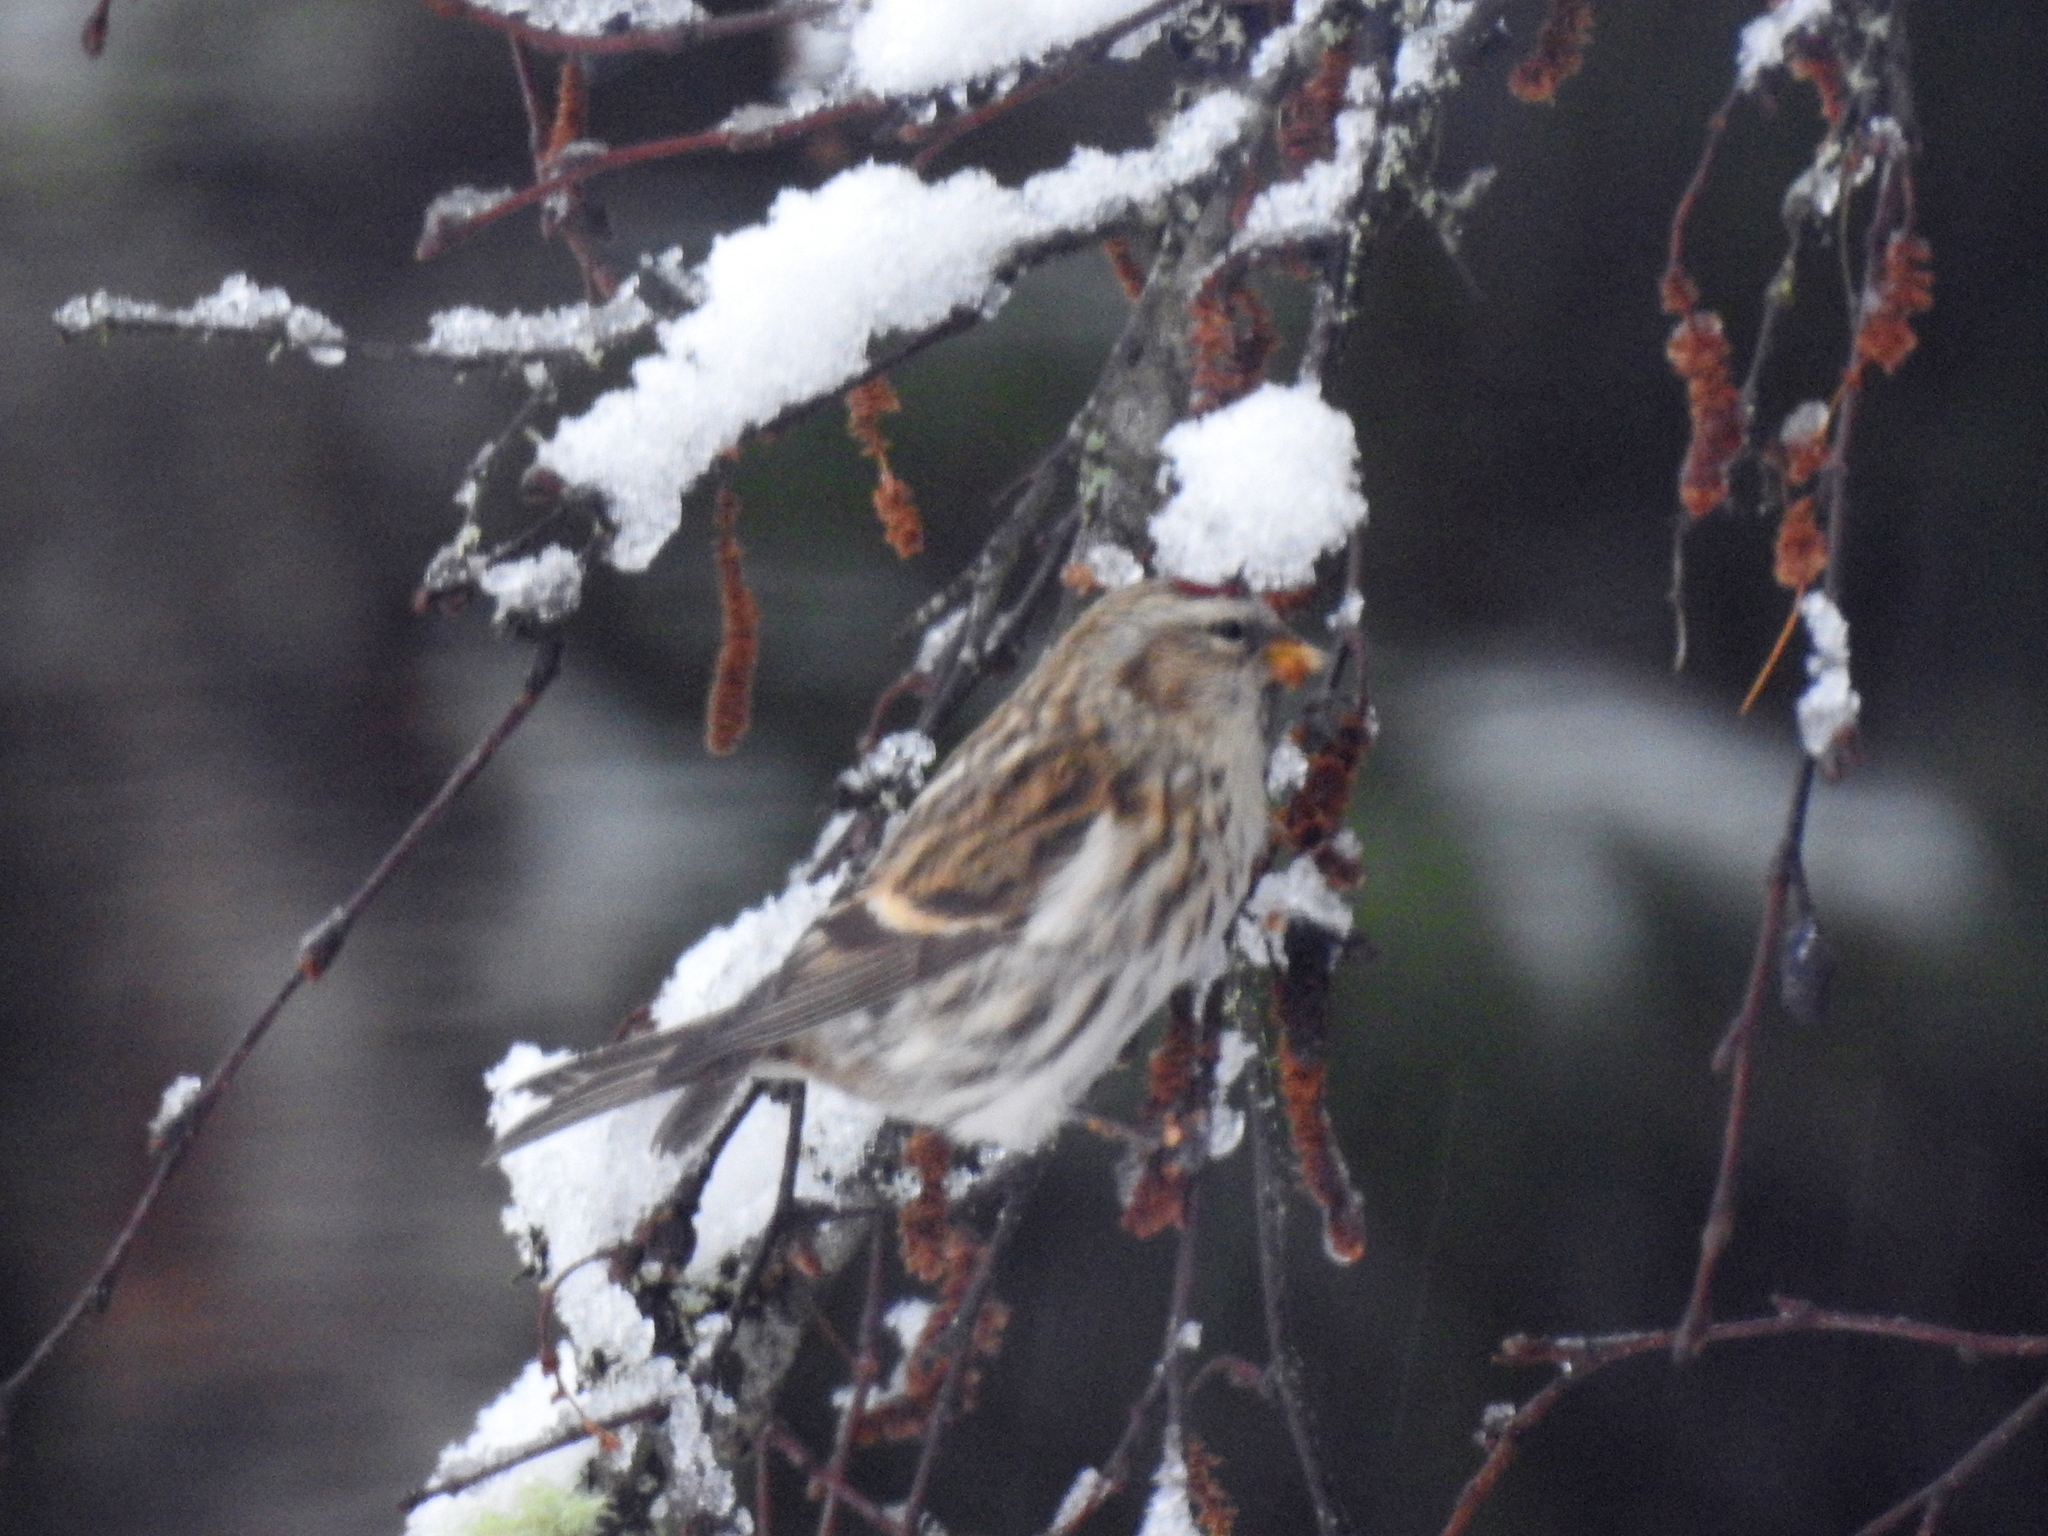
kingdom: Animalia
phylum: Chordata
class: Aves
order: Passeriformes
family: Fringillidae
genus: Acanthis
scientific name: Acanthis flammea
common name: Common redpoll
